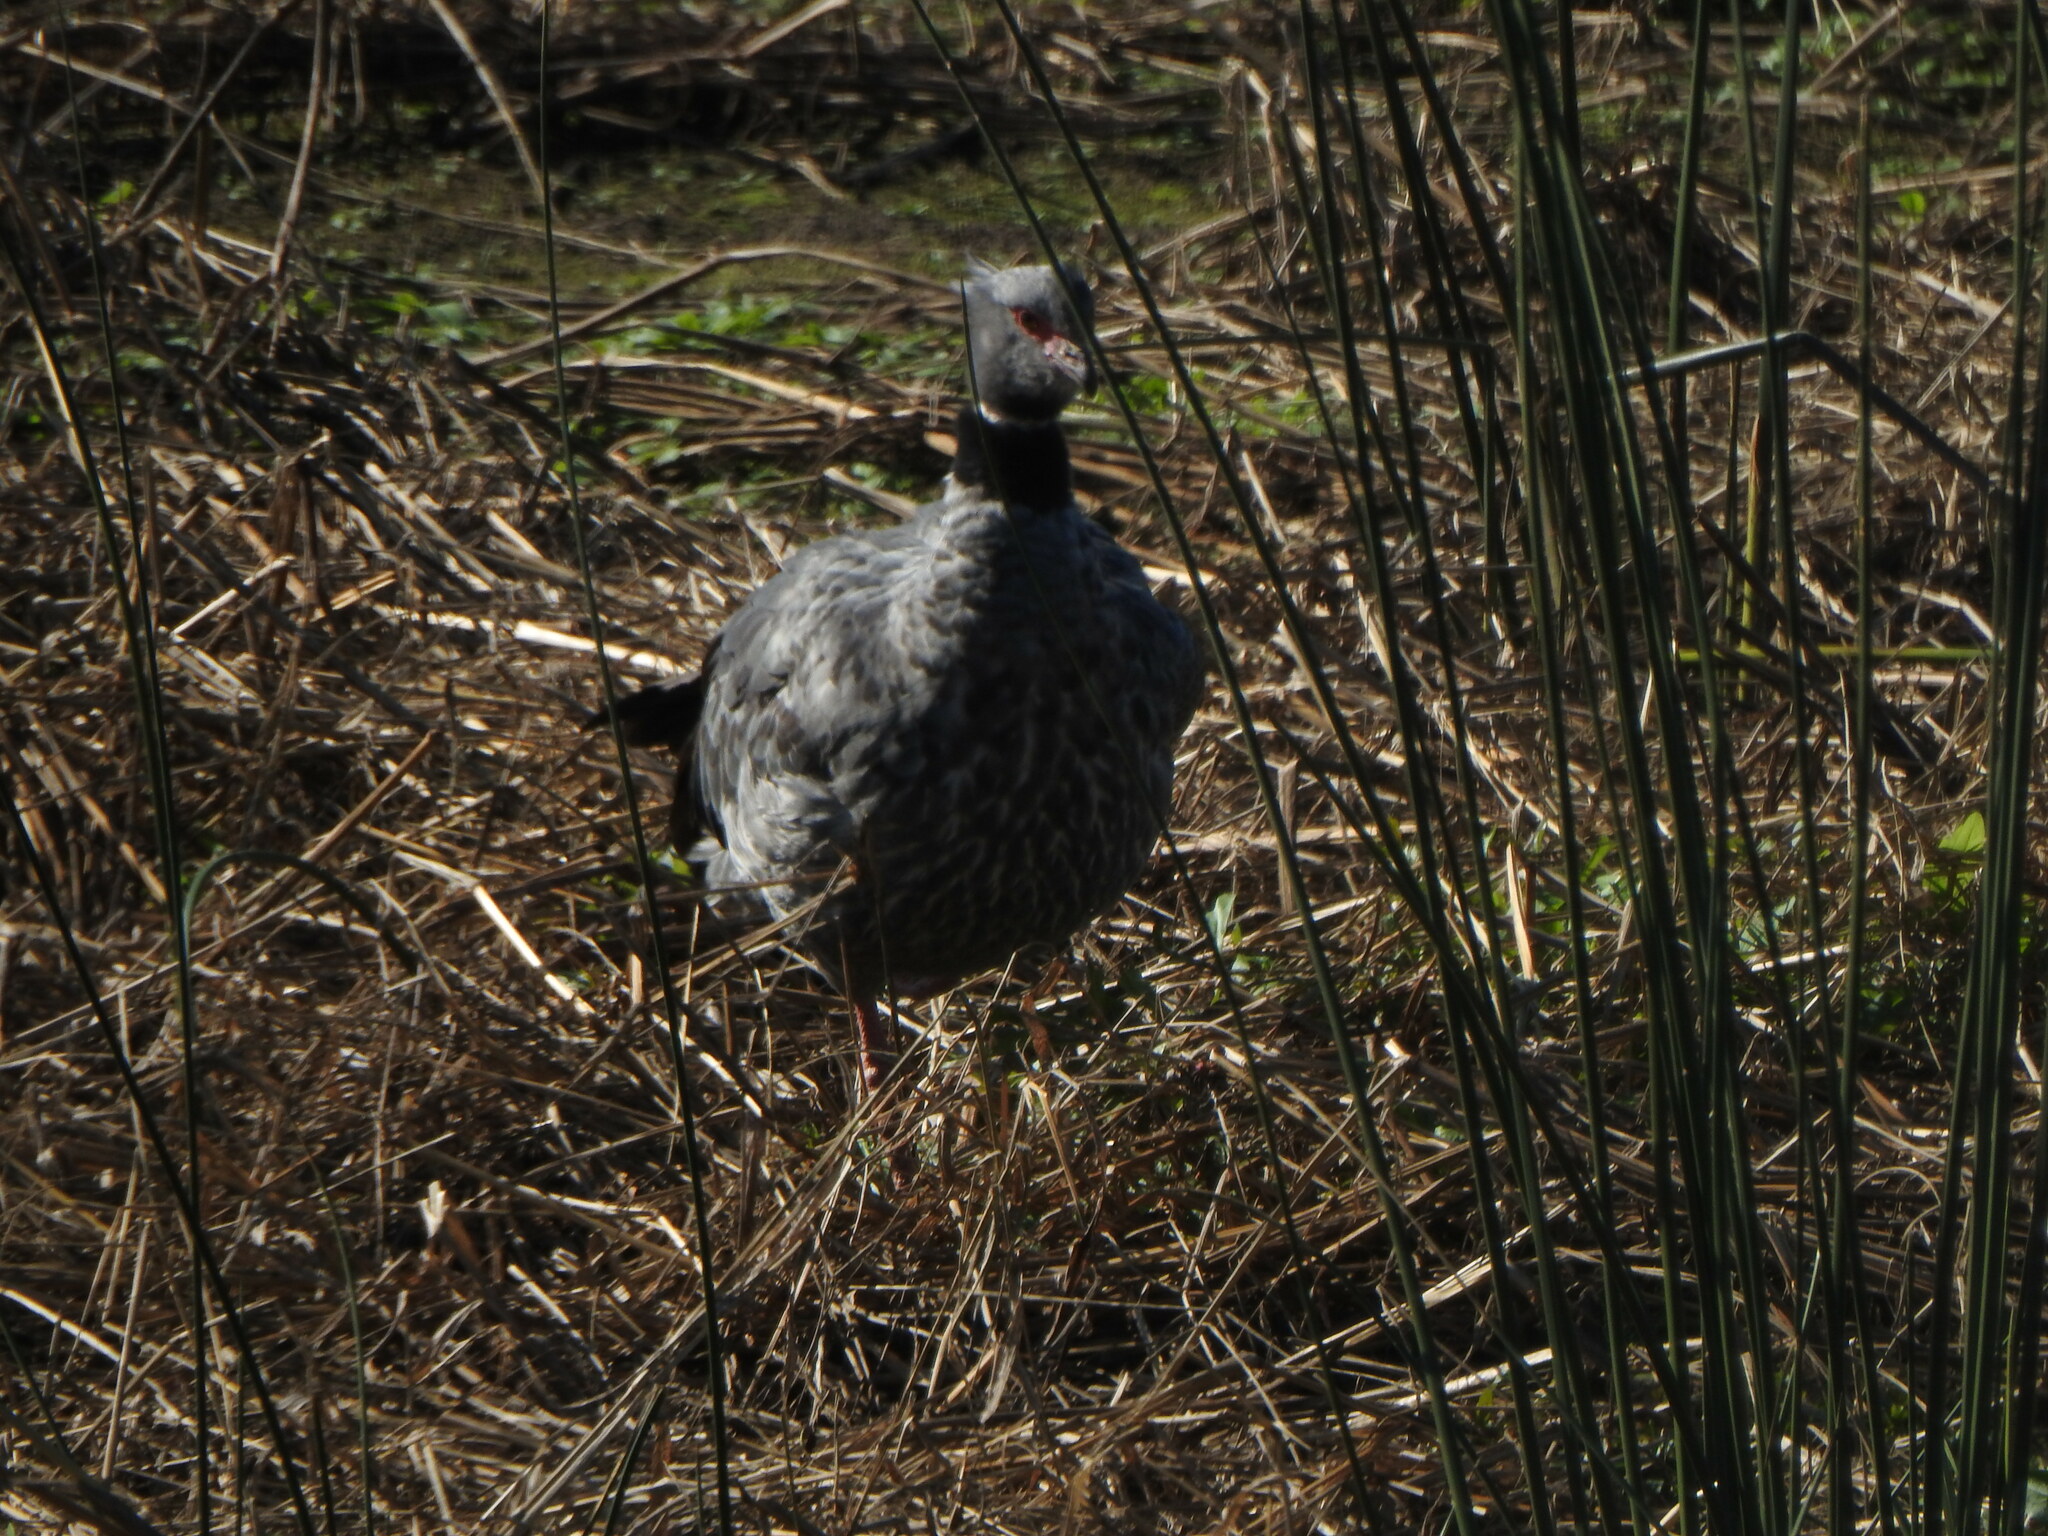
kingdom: Animalia
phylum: Chordata
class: Aves
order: Anseriformes
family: Anhimidae
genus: Chauna
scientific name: Chauna torquata
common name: Southern screamer
